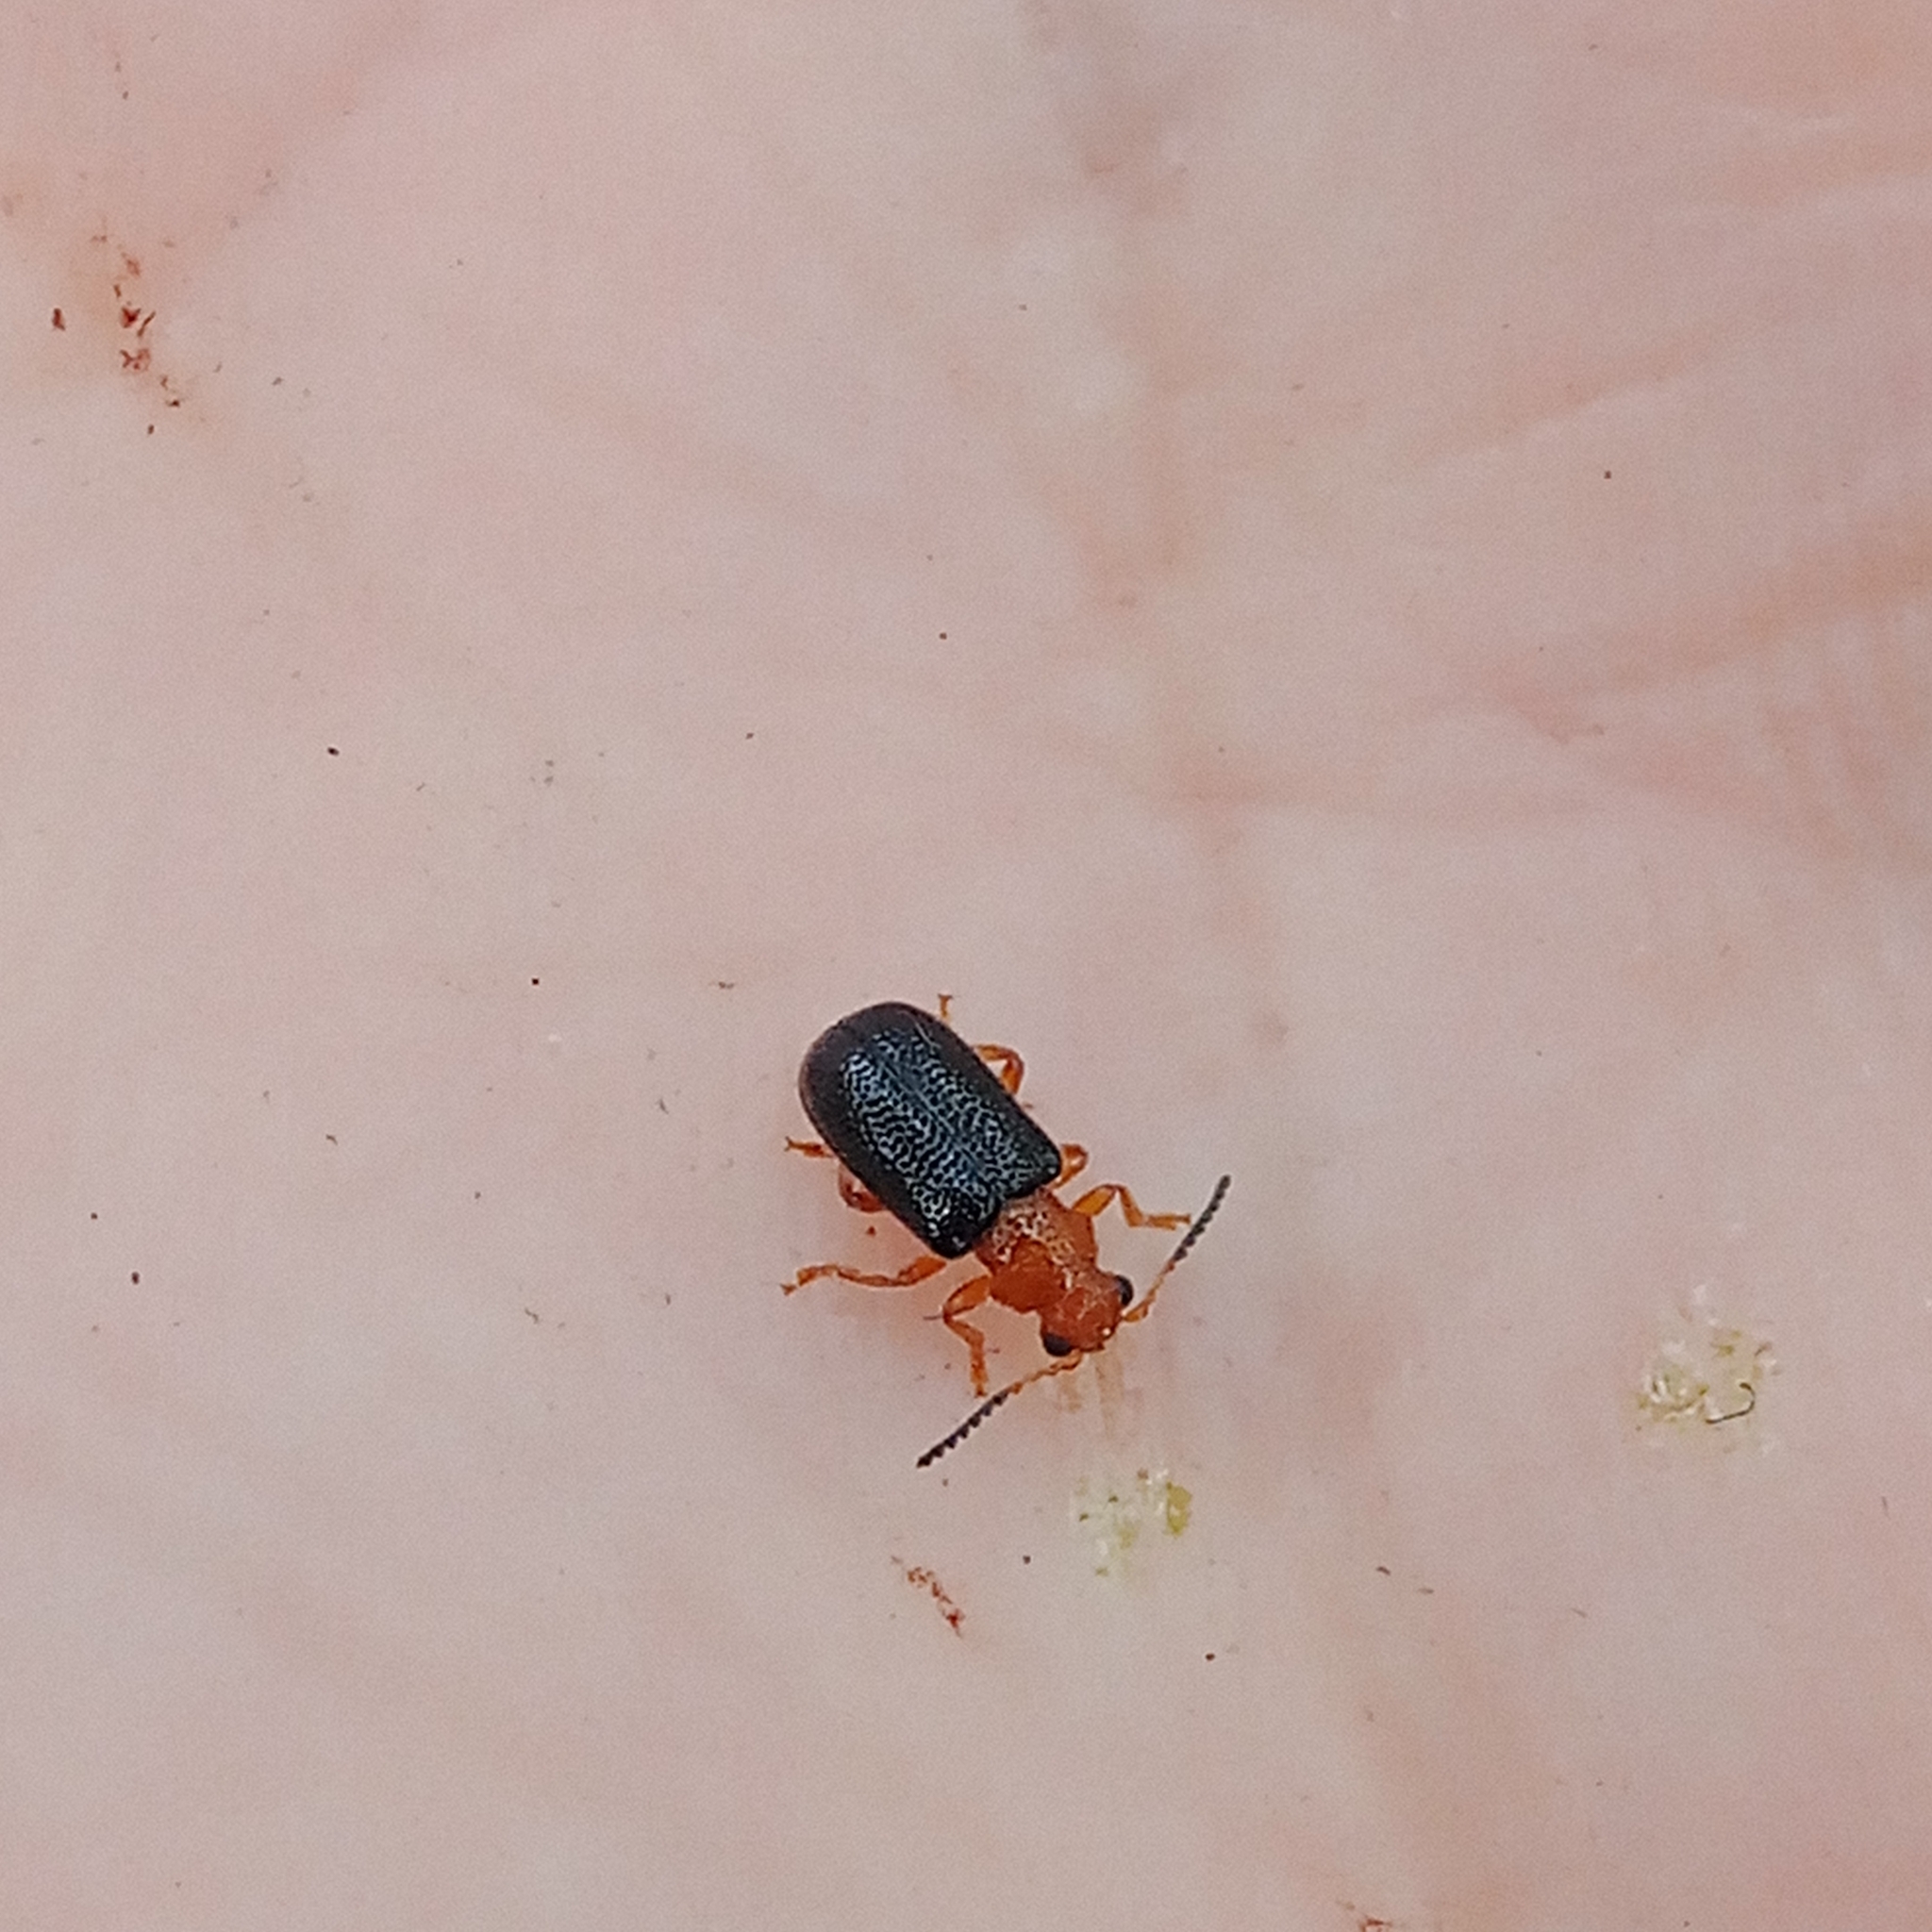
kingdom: Animalia
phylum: Arthropoda
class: Insecta
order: Coleoptera
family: Megalopodidae
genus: Zeugophora
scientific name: Zeugophora subspinosa
